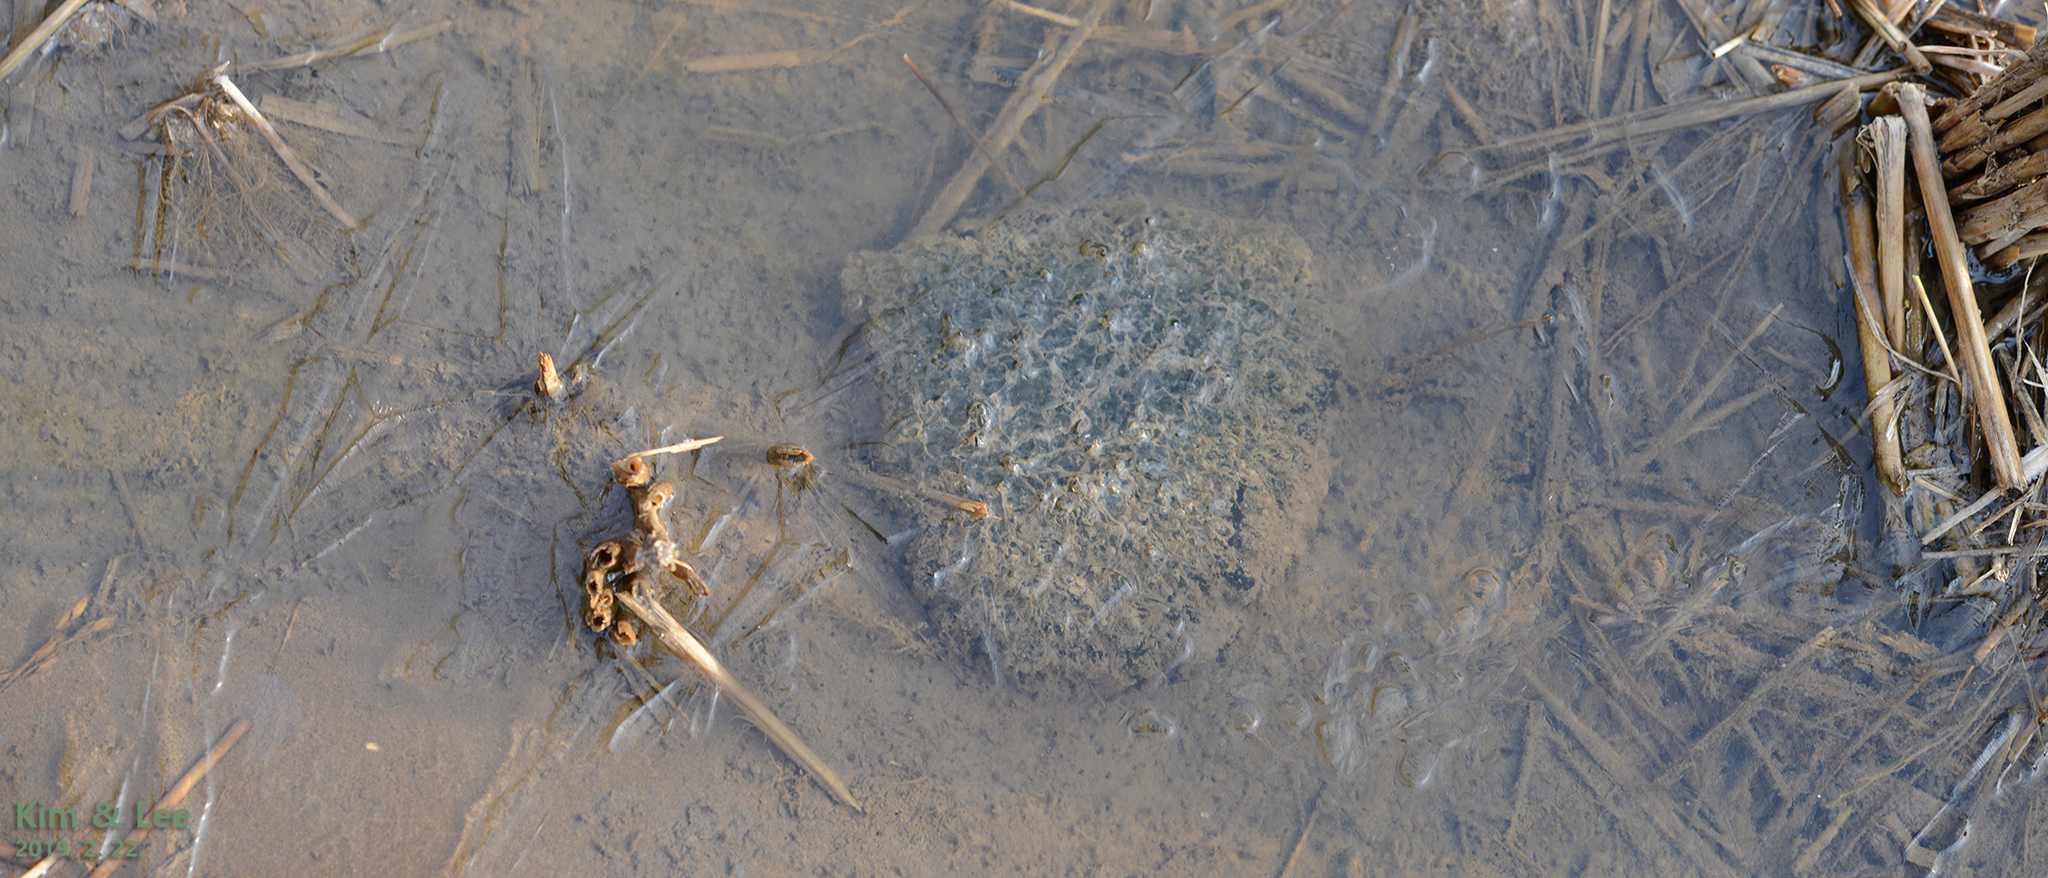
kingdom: Animalia
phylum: Chordata
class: Amphibia
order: Anura
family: Ranidae
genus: Rana
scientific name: Rana uenoi
